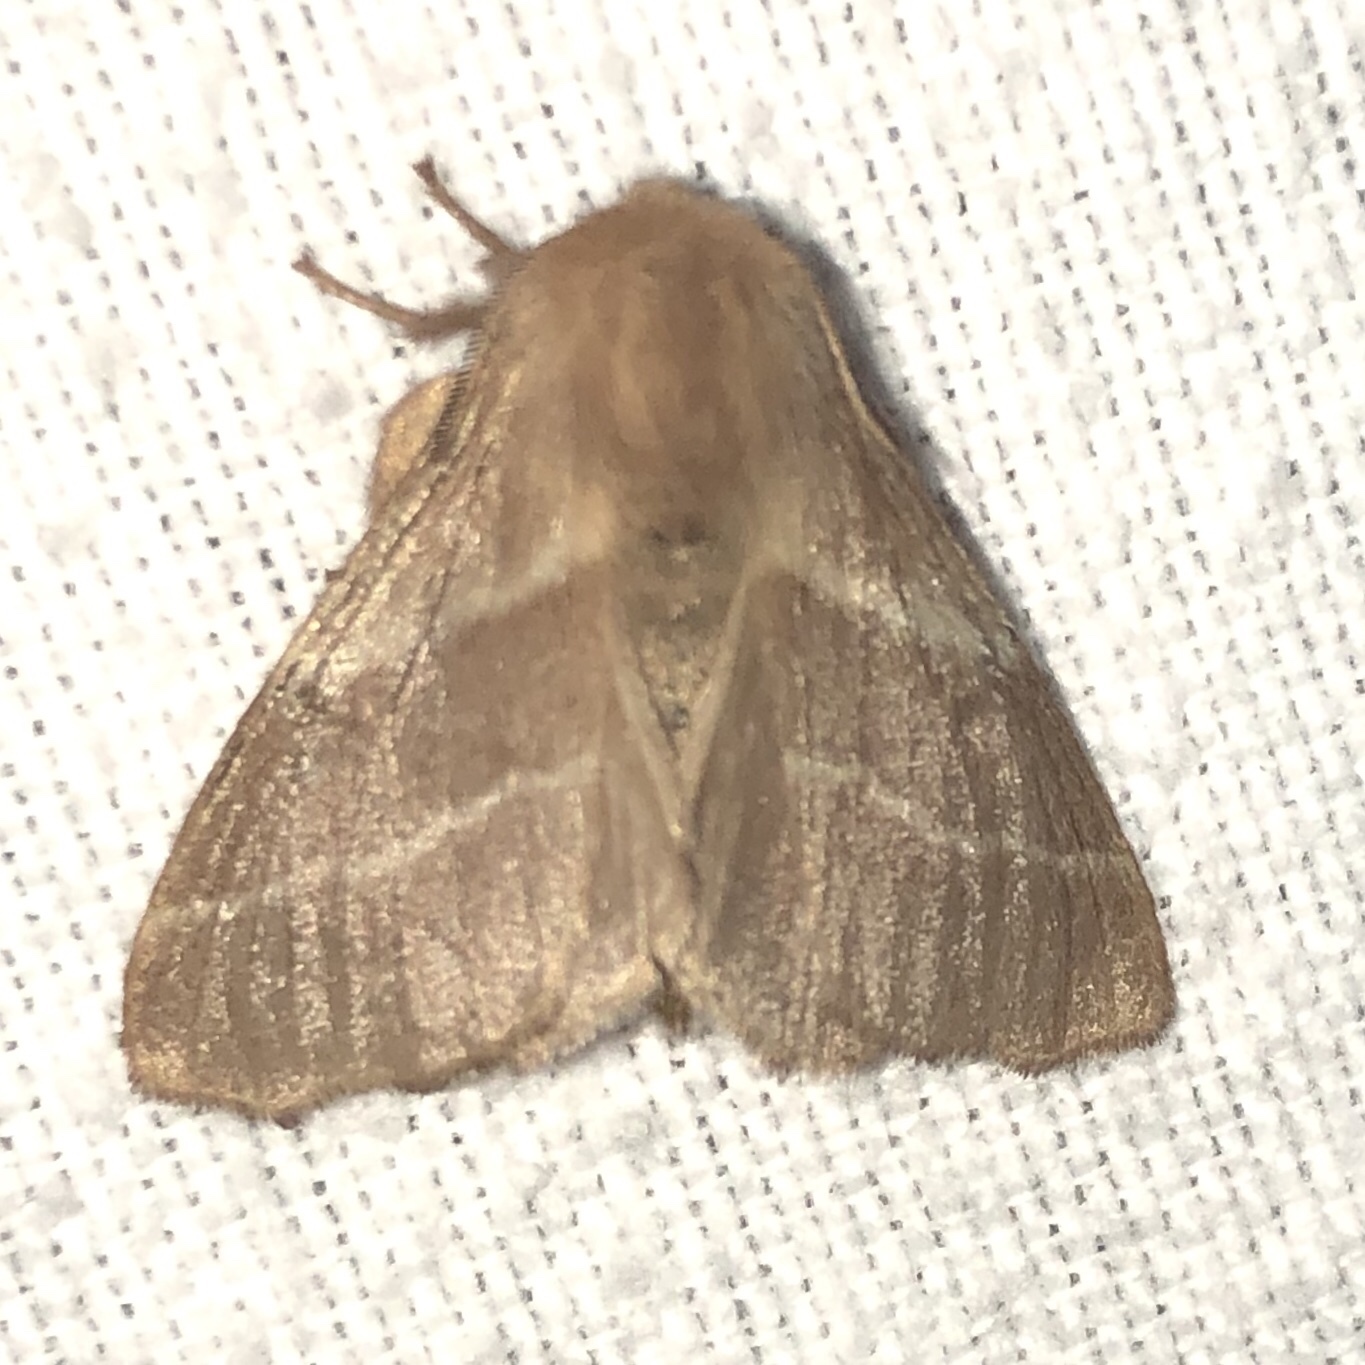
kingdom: Animalia
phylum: Arthropoda
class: Insecta
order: Lepidoptera
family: Lasiocampidae
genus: Malacosoma
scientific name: Malacosoma americana
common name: Eastern tent caterpillar moth
